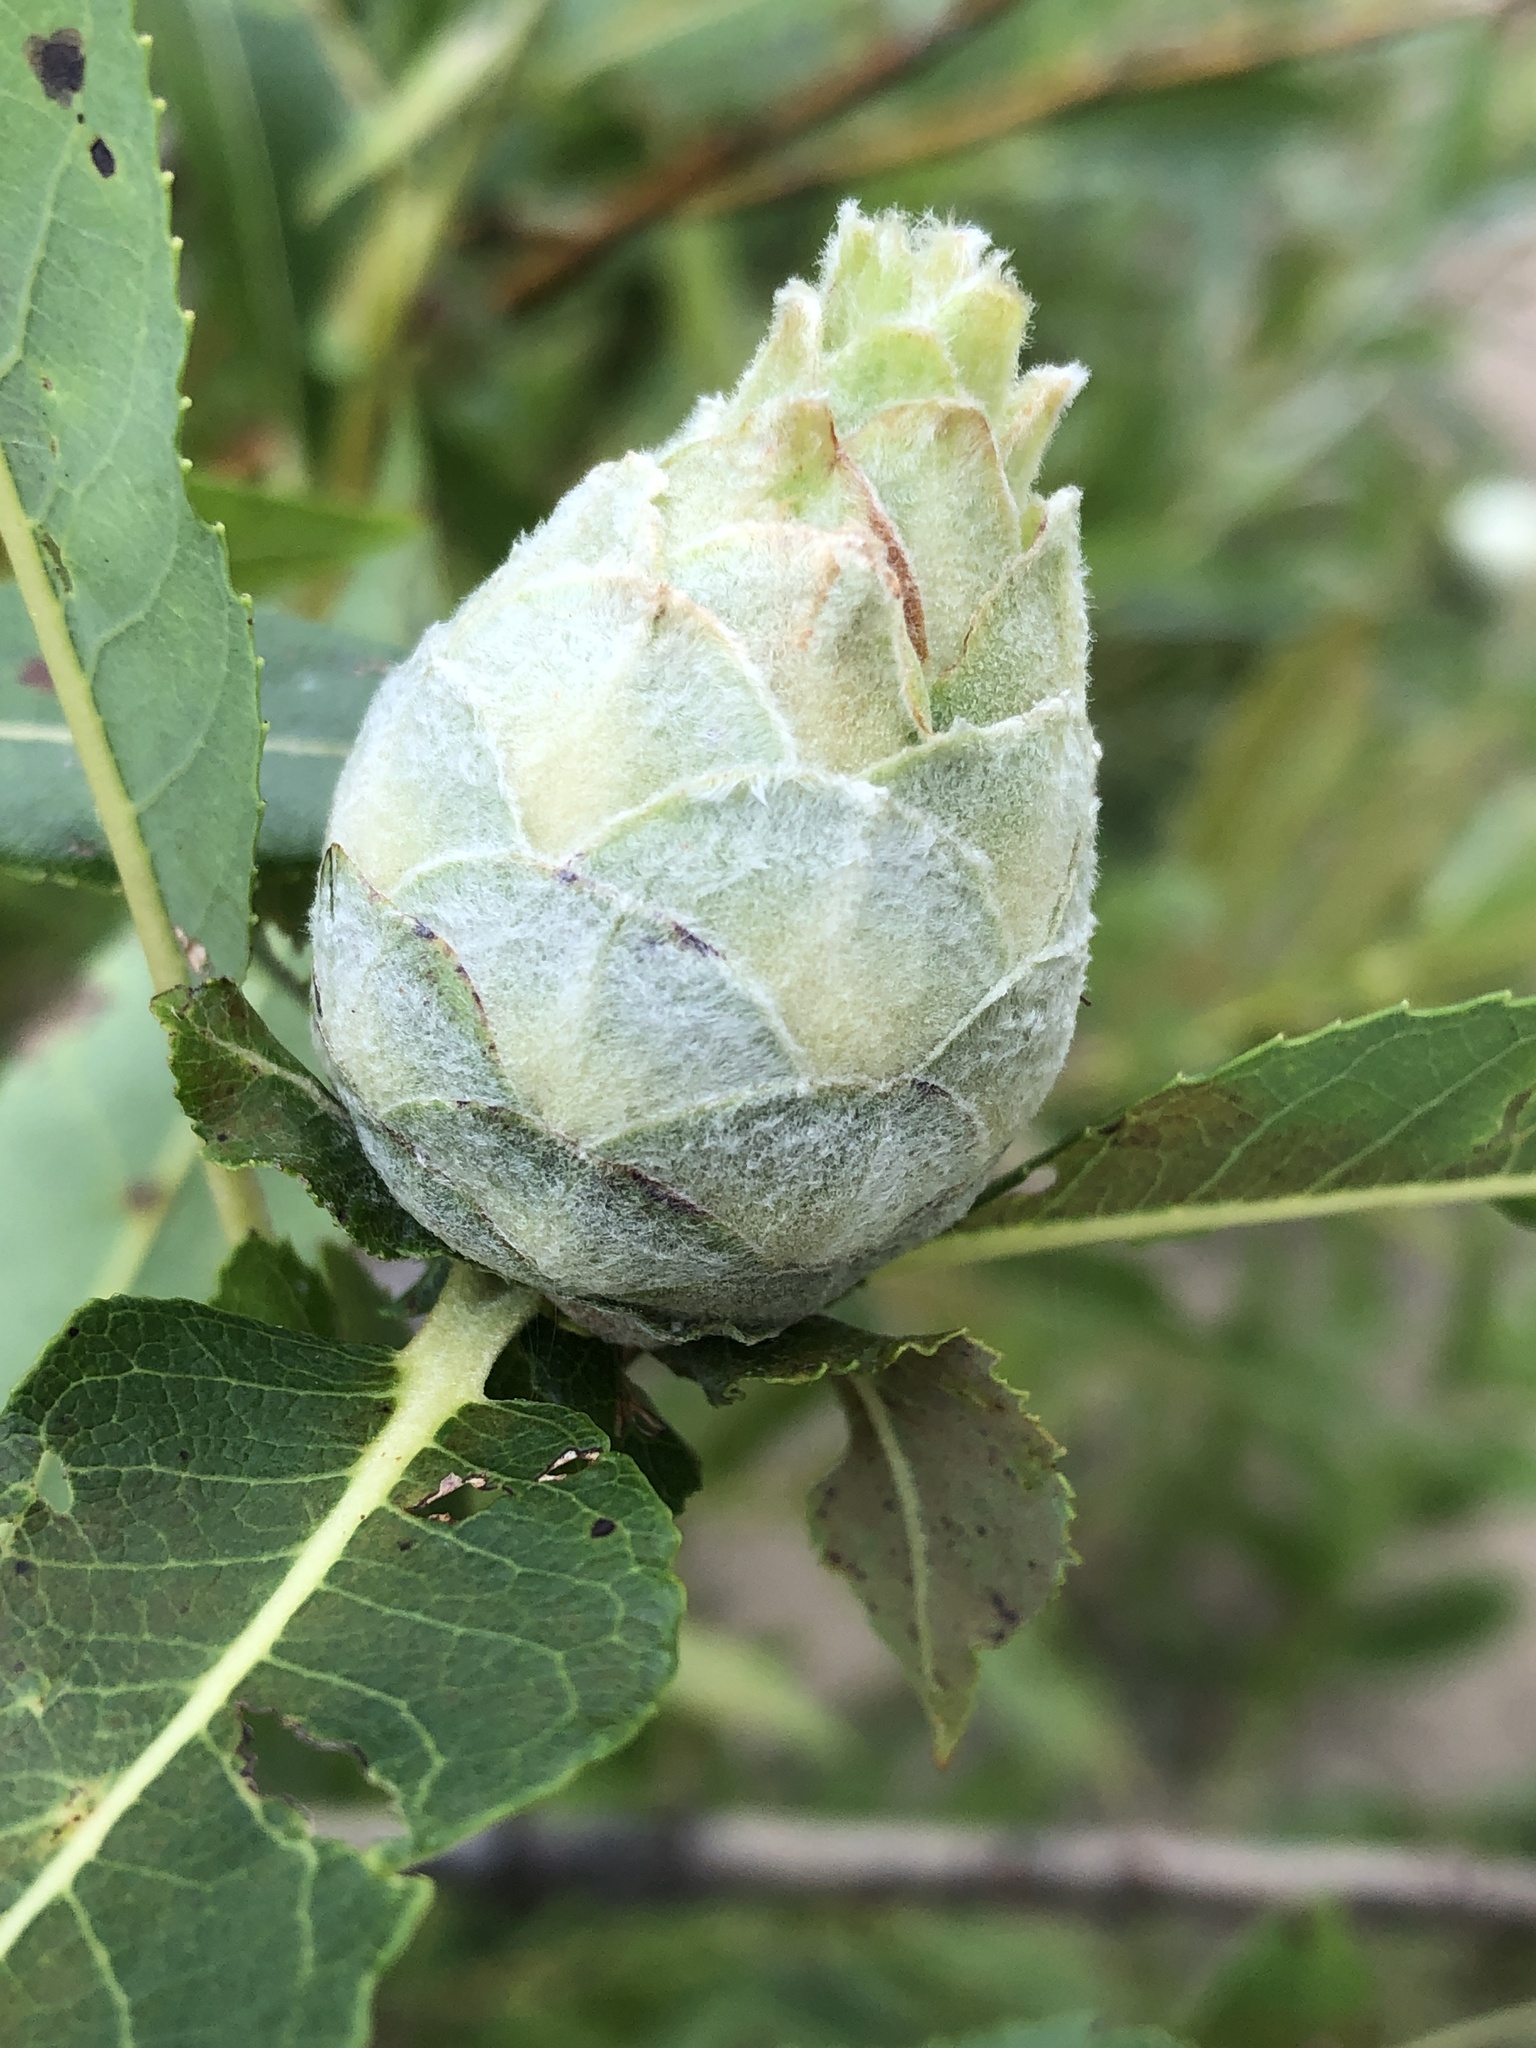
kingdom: Animalia
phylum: Arthropoda
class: Insecta
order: Diptera
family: Cecidomyiidae
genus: Rabdophaga
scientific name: Rabdophaga strobiloides
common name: Willow pinecone gall midge
